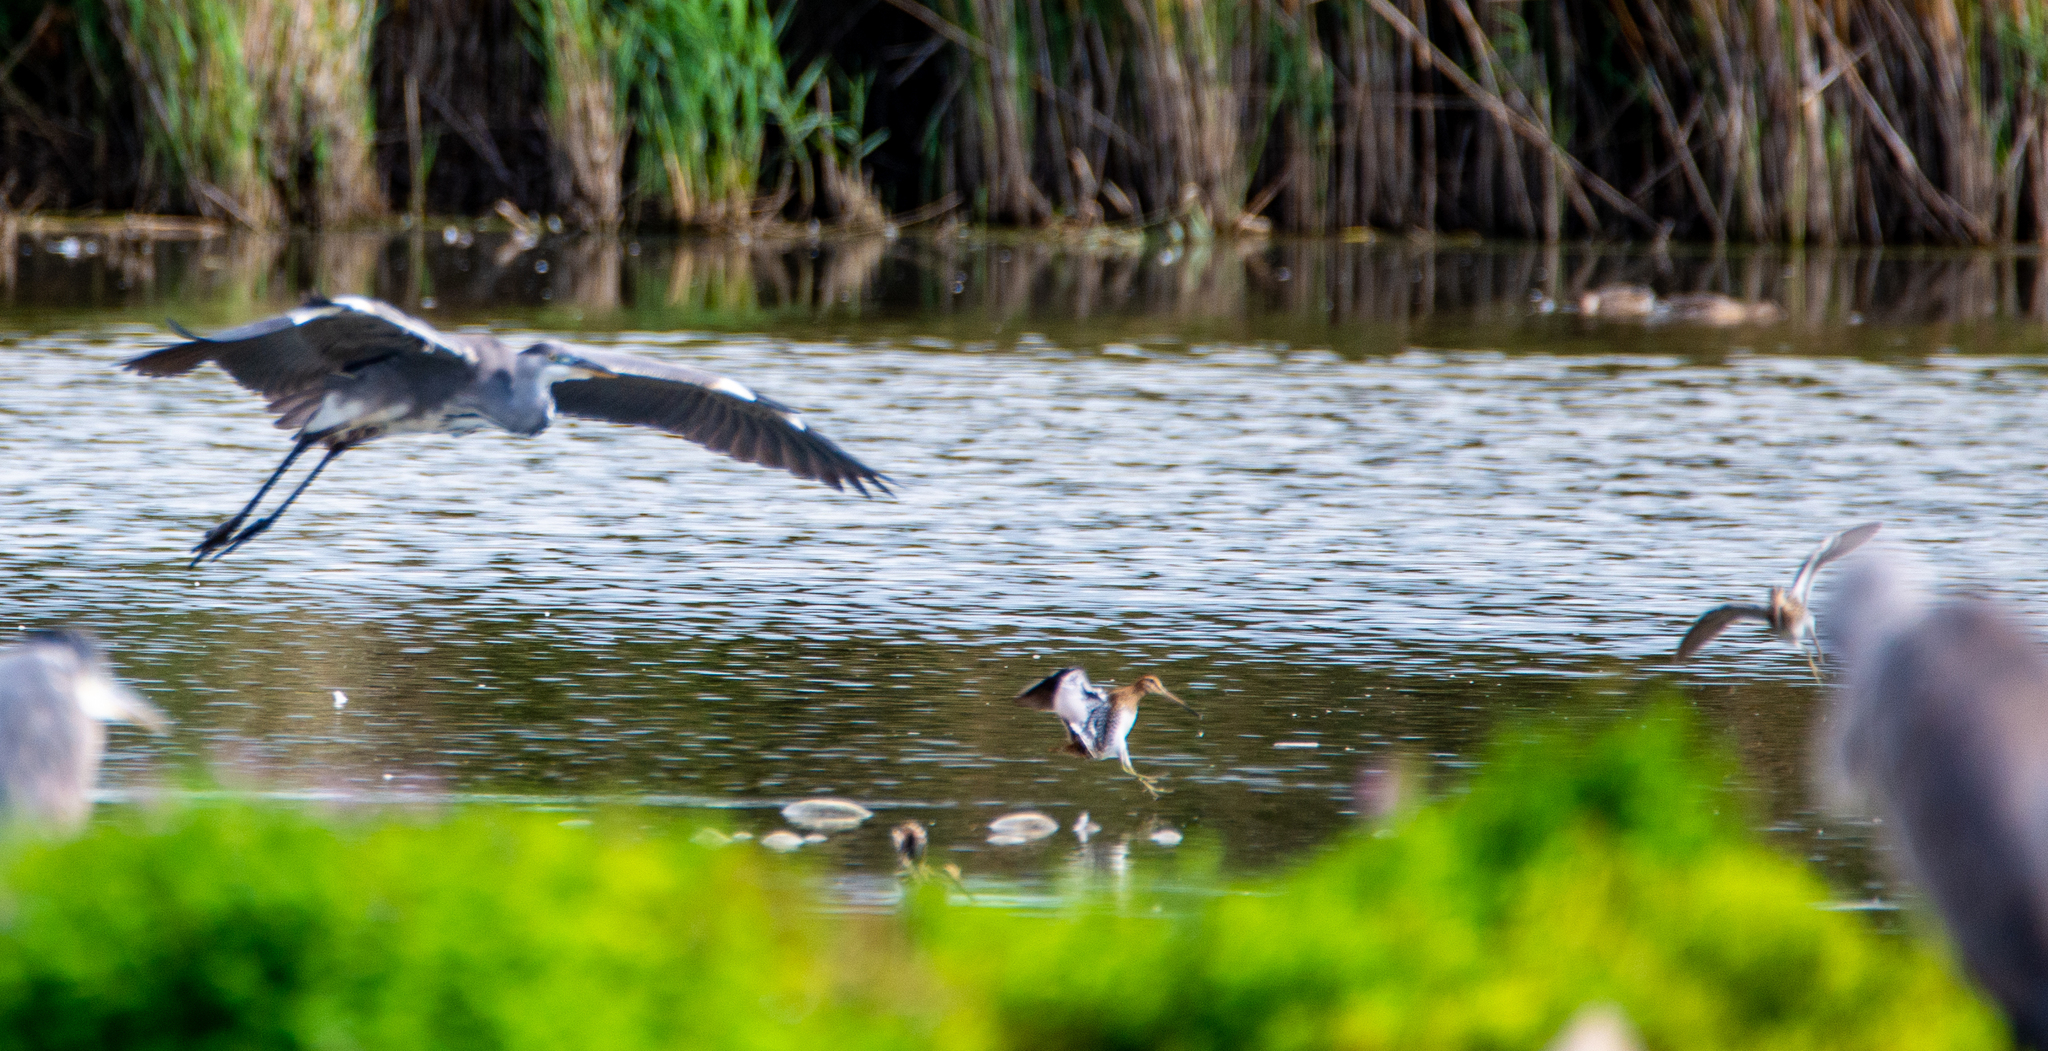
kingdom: Animalia
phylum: Chordata
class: Aves
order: Pelecaniformes
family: Ardeidae
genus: Ardea
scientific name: Ardea cinerea
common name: Grey heron
